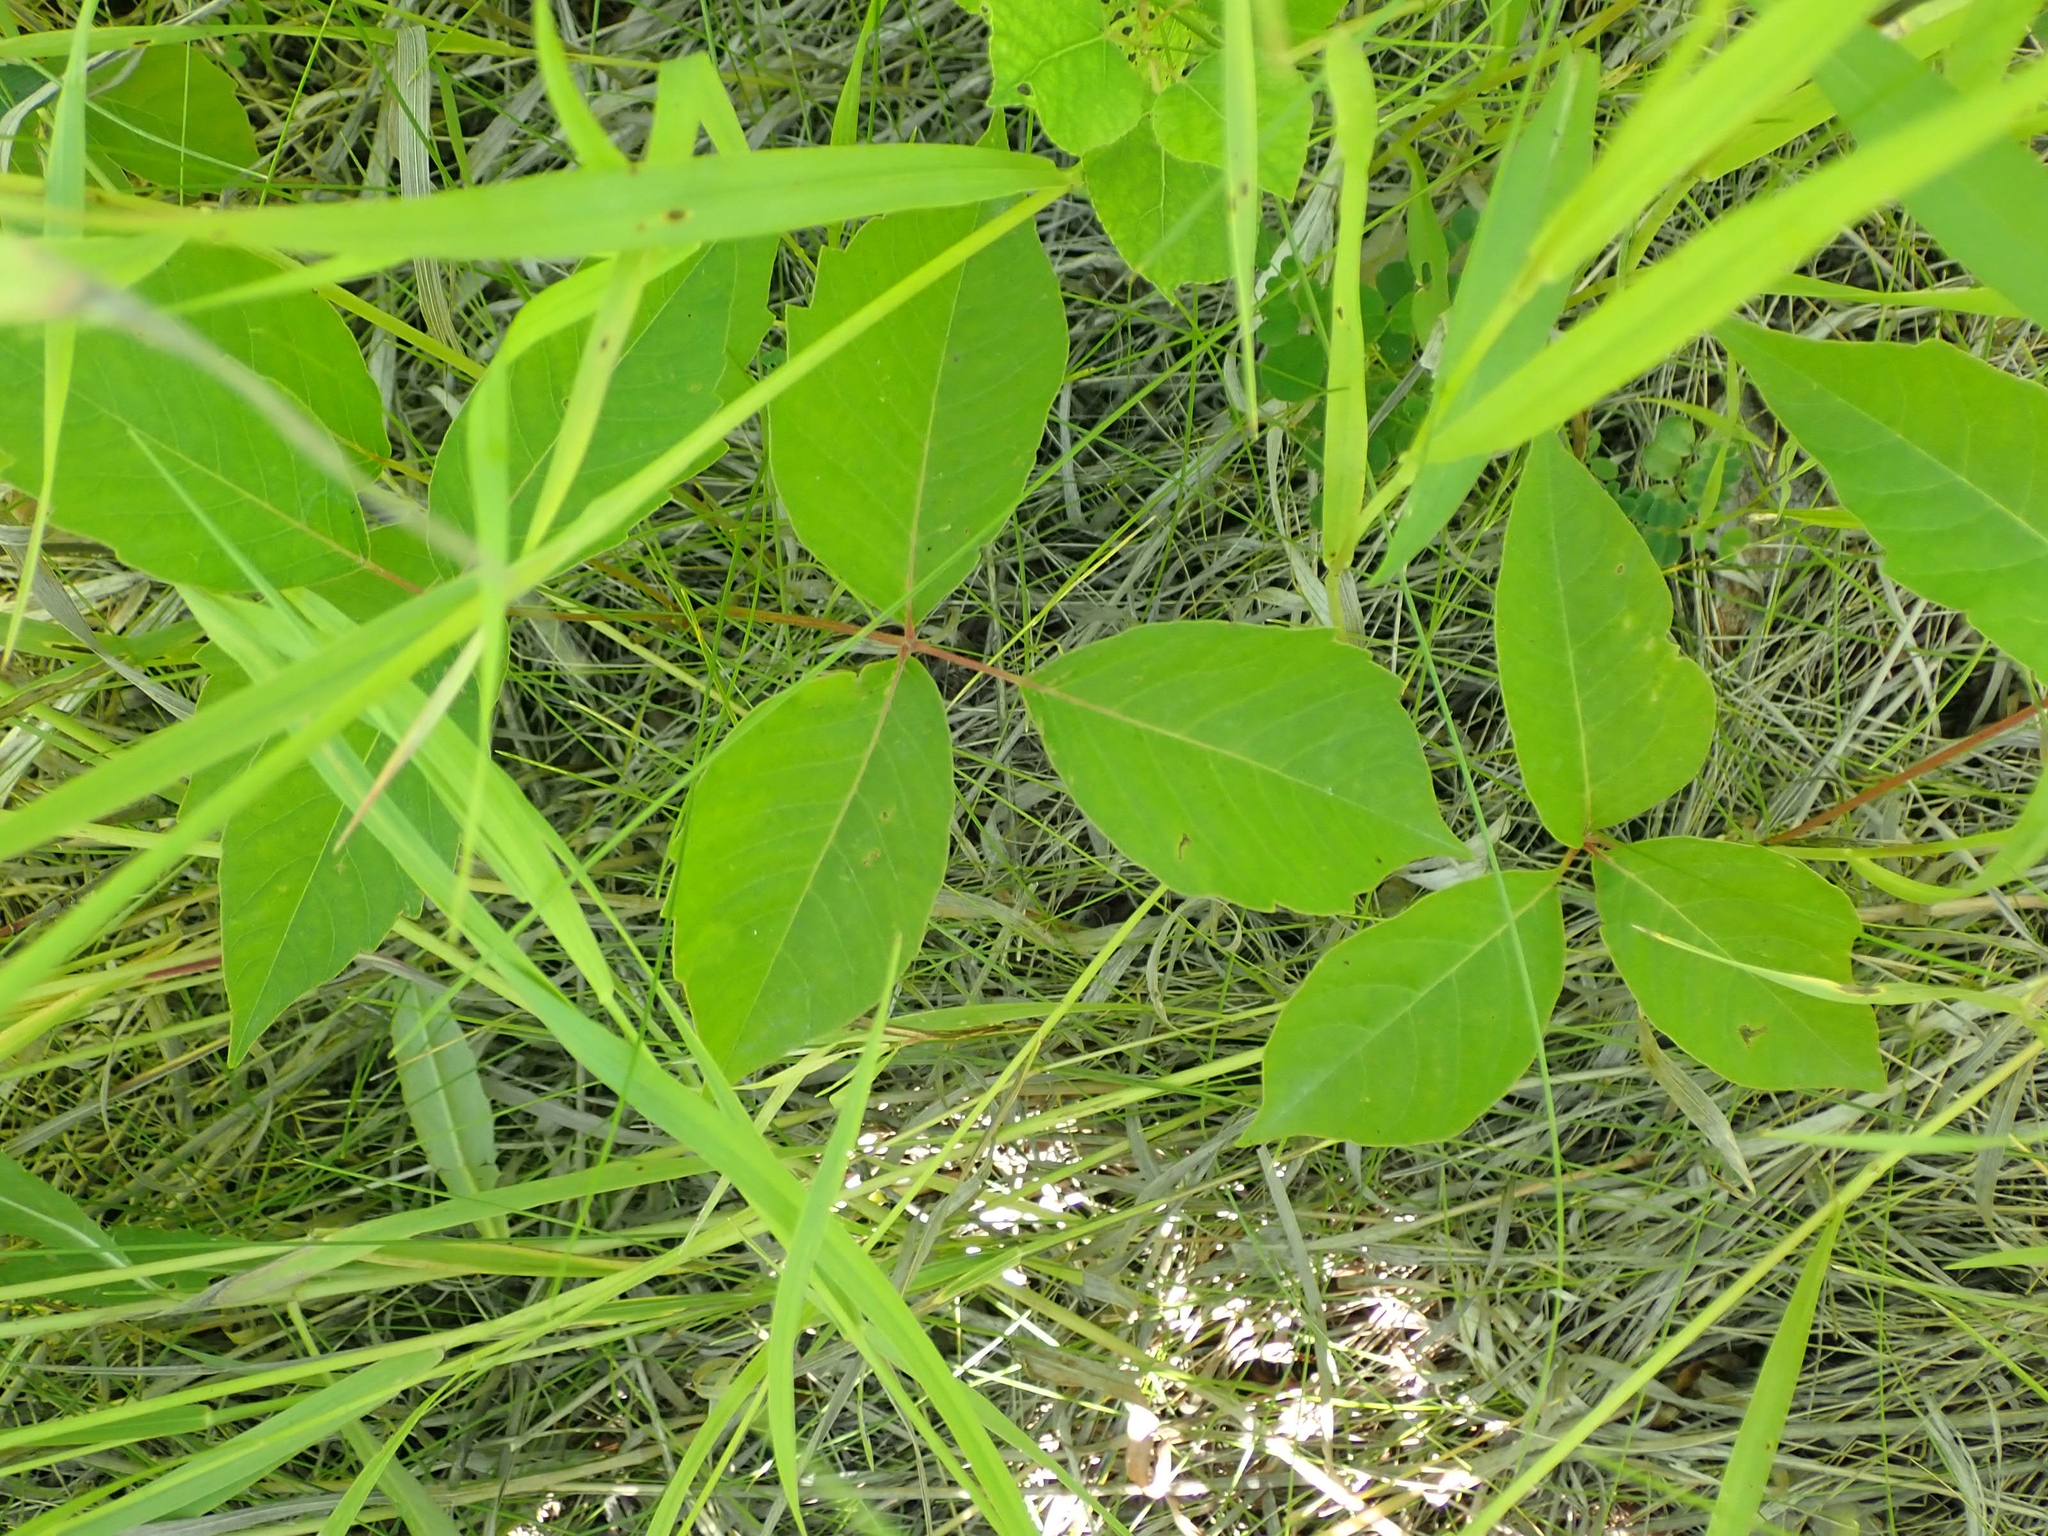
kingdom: Plantae
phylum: Tracheophyta
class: Magnoliopsida
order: Sapindales
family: Anacardiaceae
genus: Toxicodendron
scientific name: Toxicodendron rydbergii
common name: Rydberg's poison-ivy
